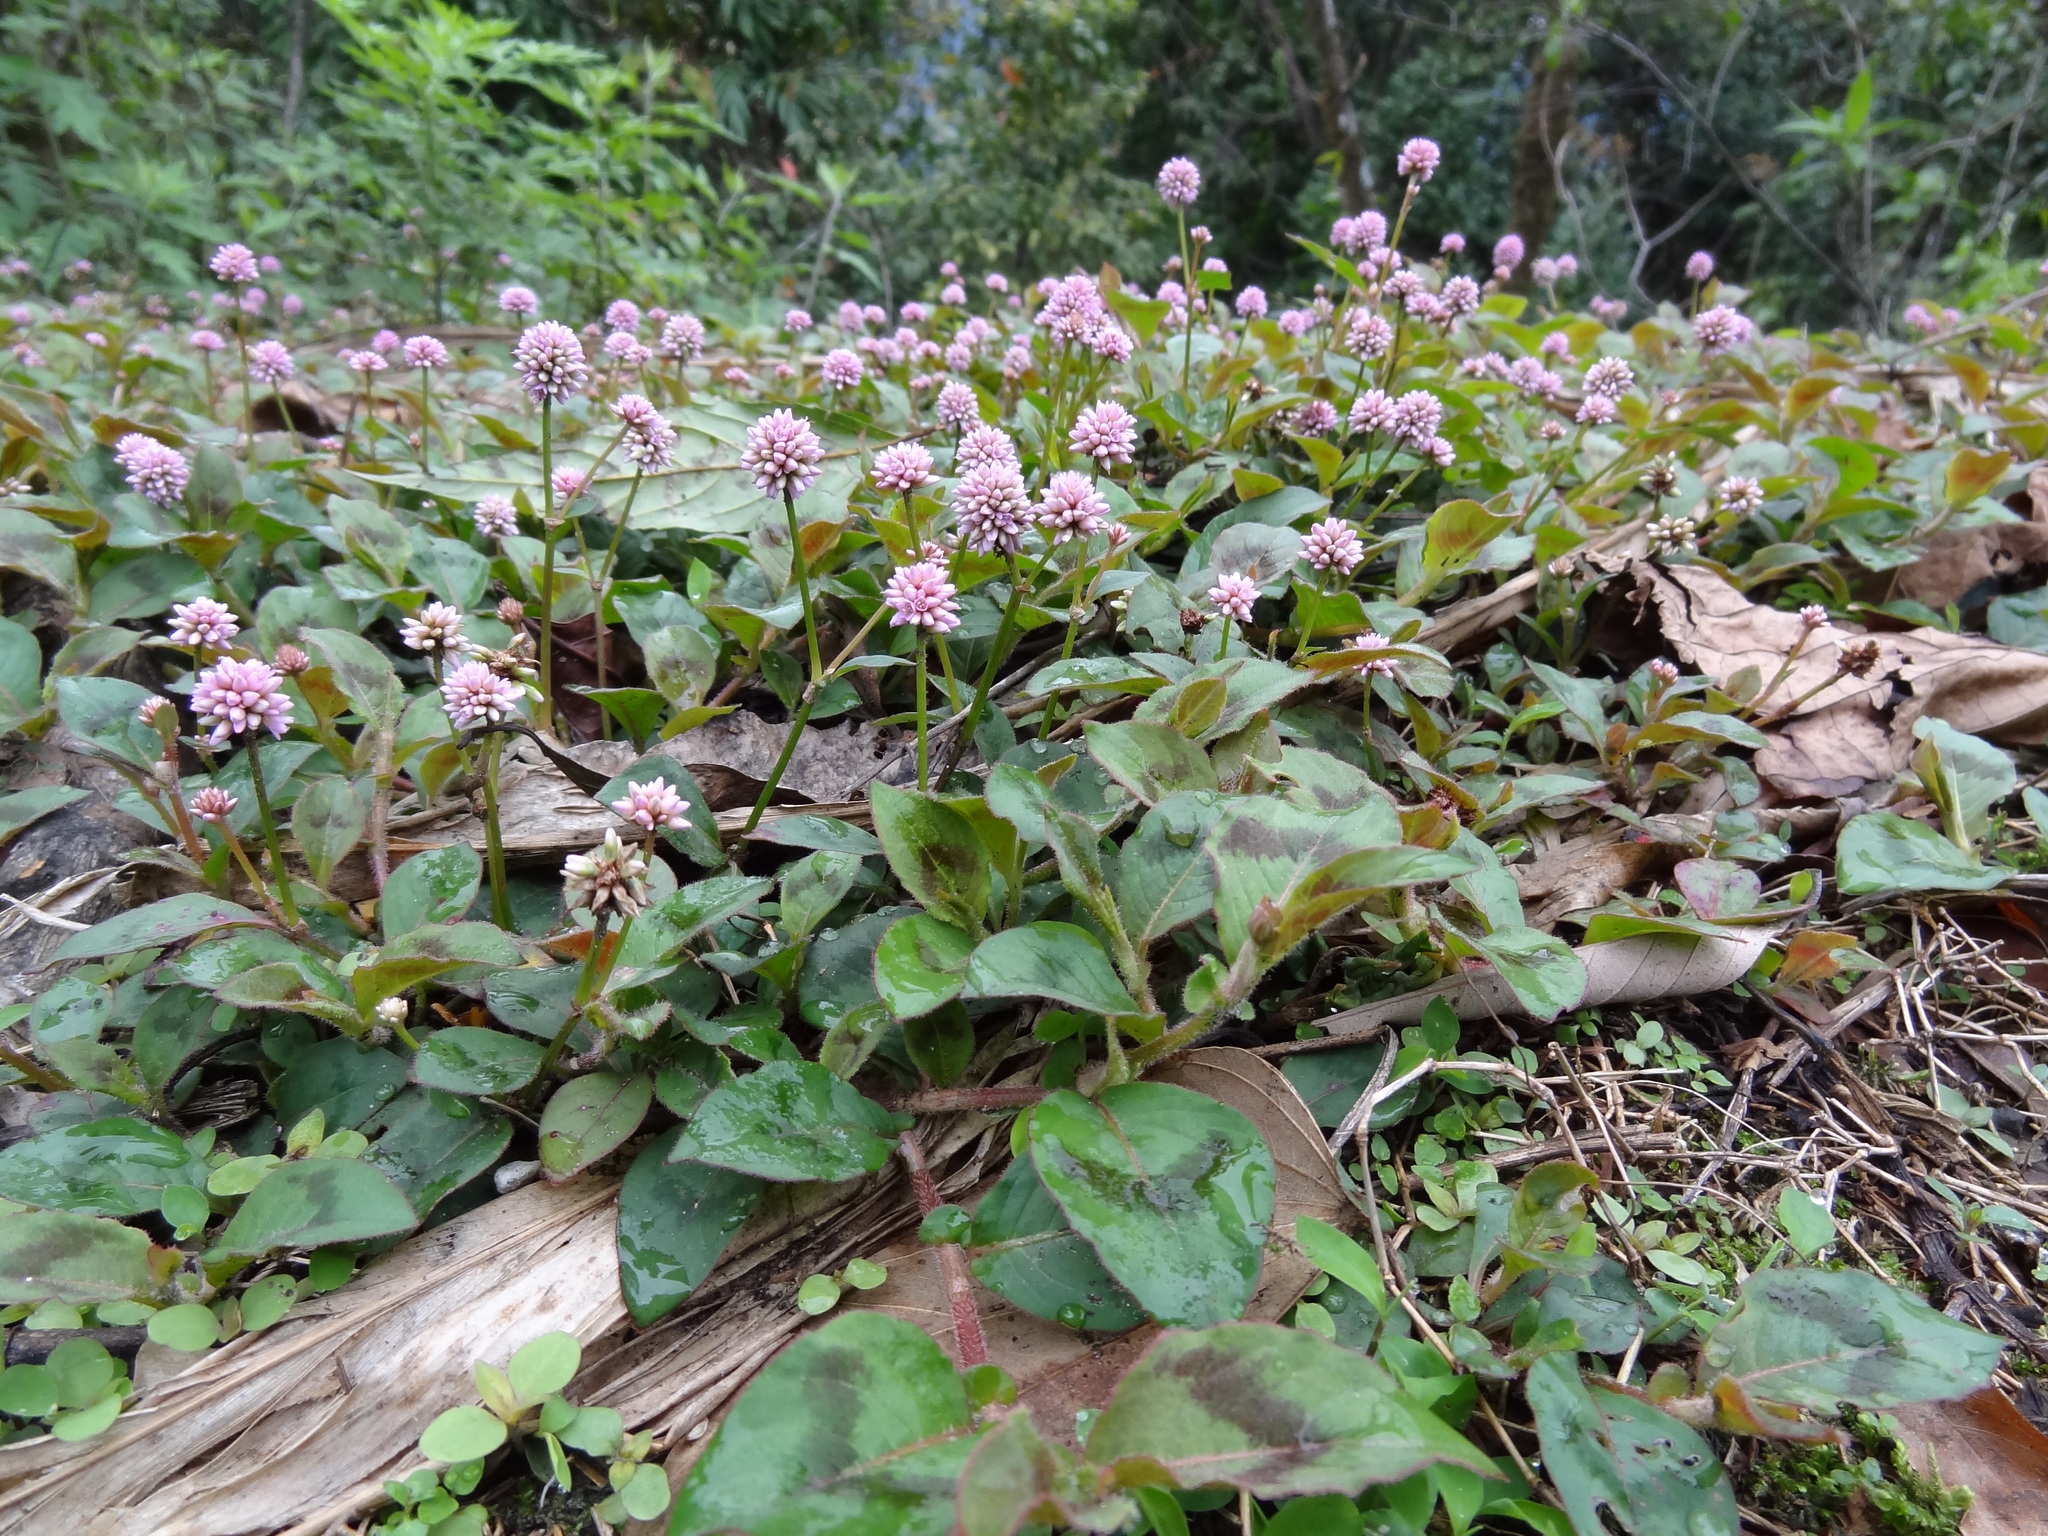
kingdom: Plantae
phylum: Tracheophyta
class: Magnoliopsida
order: Caryophyllales
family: Polygonaceae
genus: Persicaria
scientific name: Persicaria capitata
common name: Pinkhead smartweed
